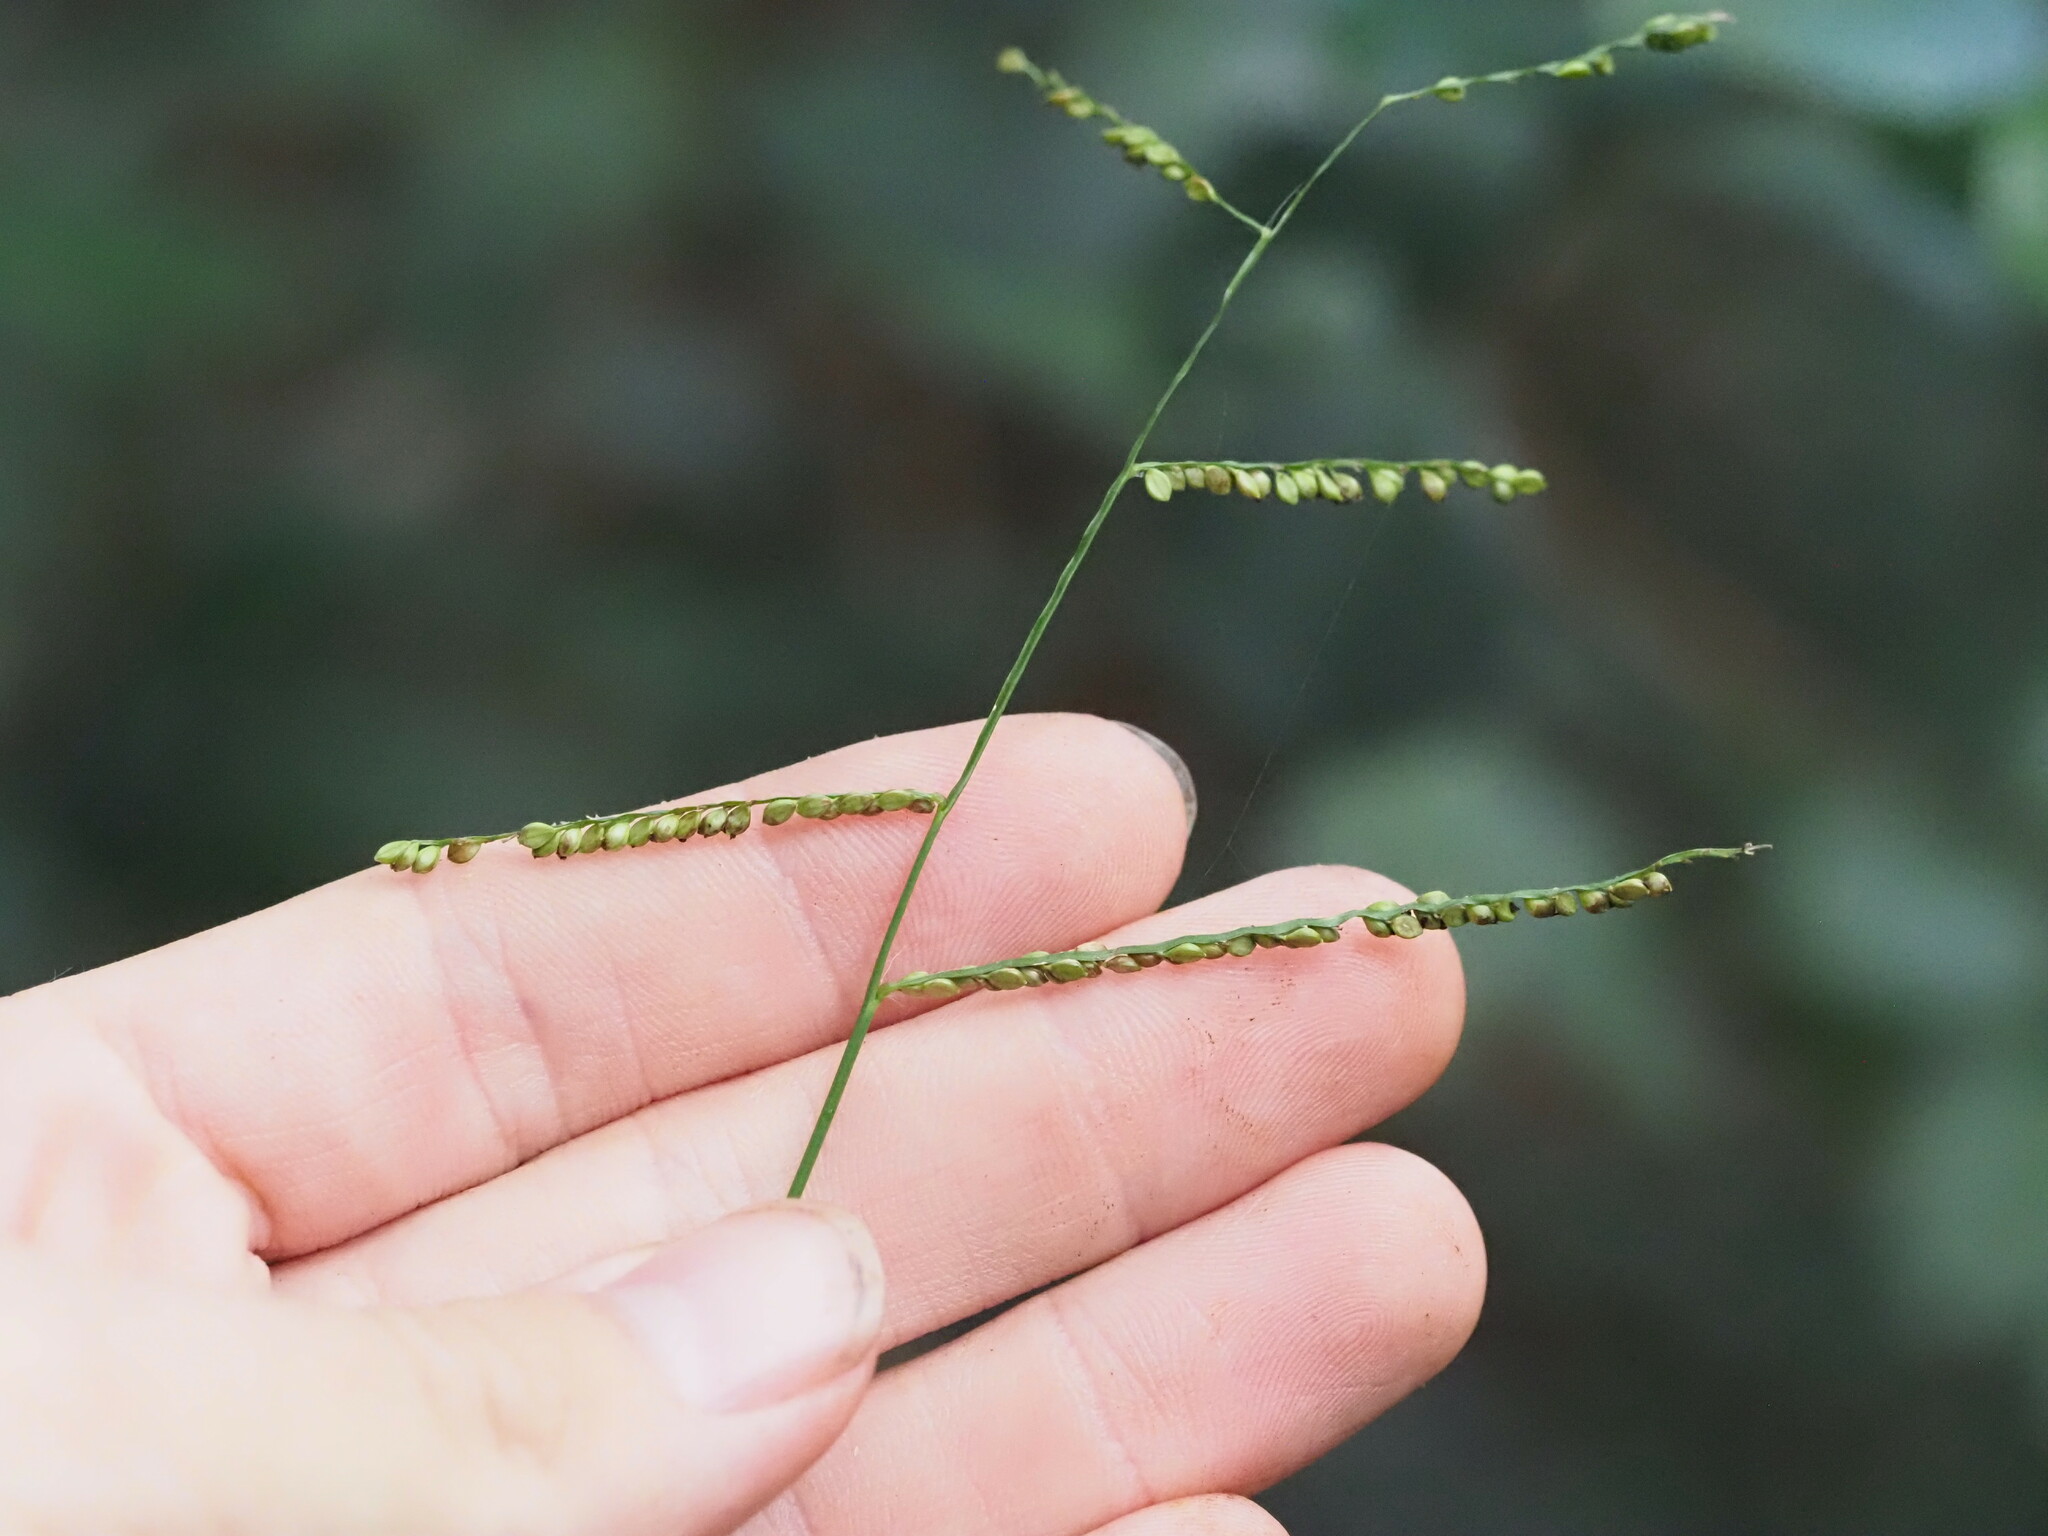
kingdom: Plantae
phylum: Tracheophyta
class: Liliopsida
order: Poales
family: Poaceae
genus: Paspalum
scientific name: Paspalum mandiocanum
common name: Paspalum
